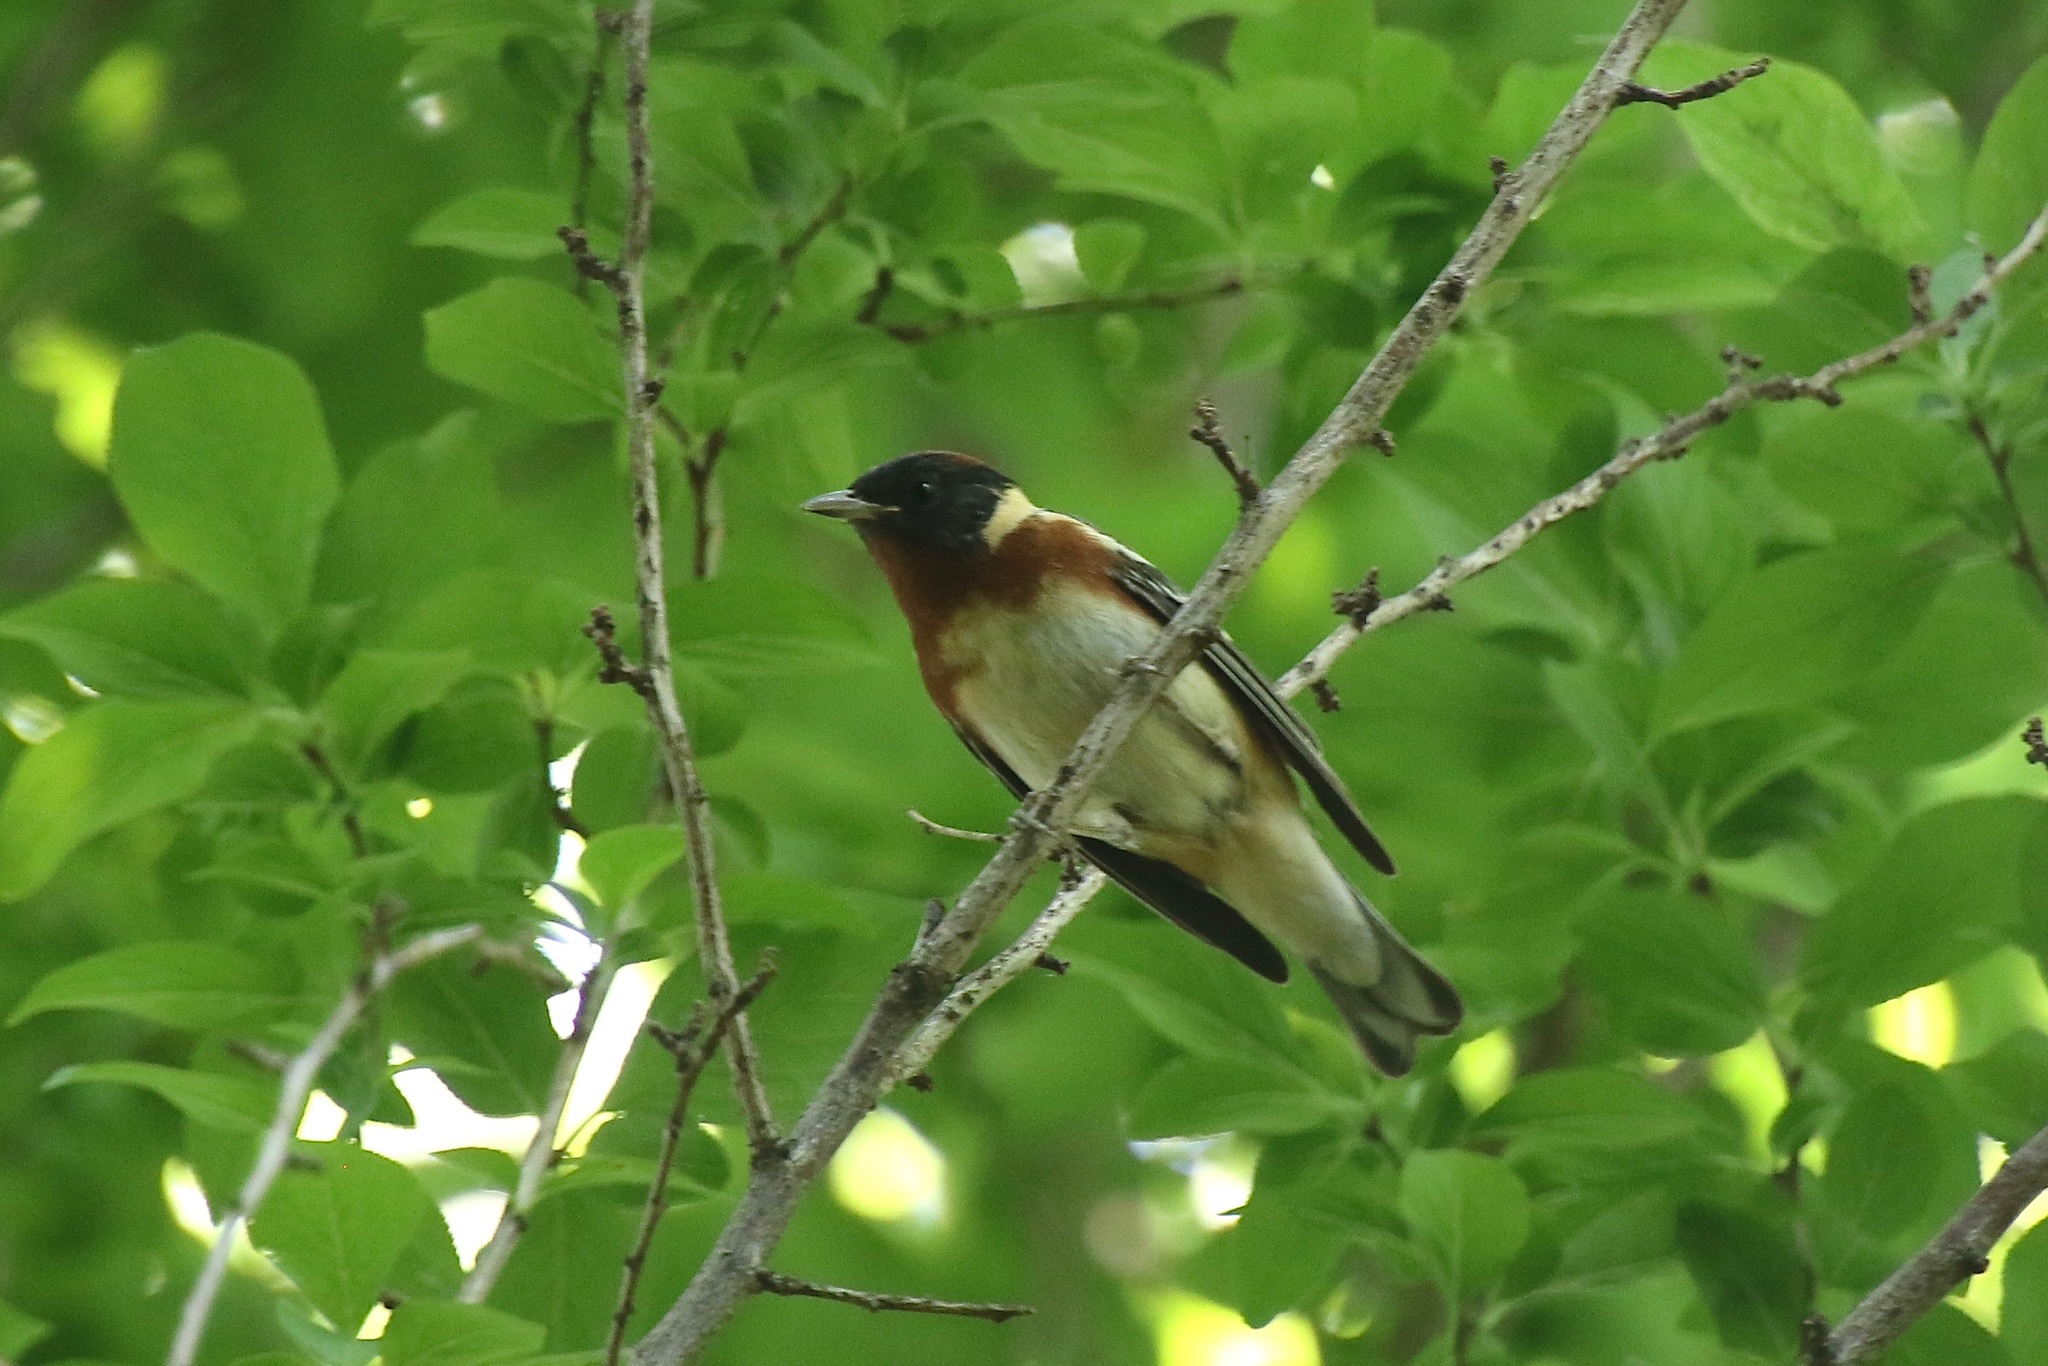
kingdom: Animalia
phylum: Chordata
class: Aves
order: Passeriformes
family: Parulidae
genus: Setophaga
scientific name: Setophaga castanea
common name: Bay-breasted warbler
